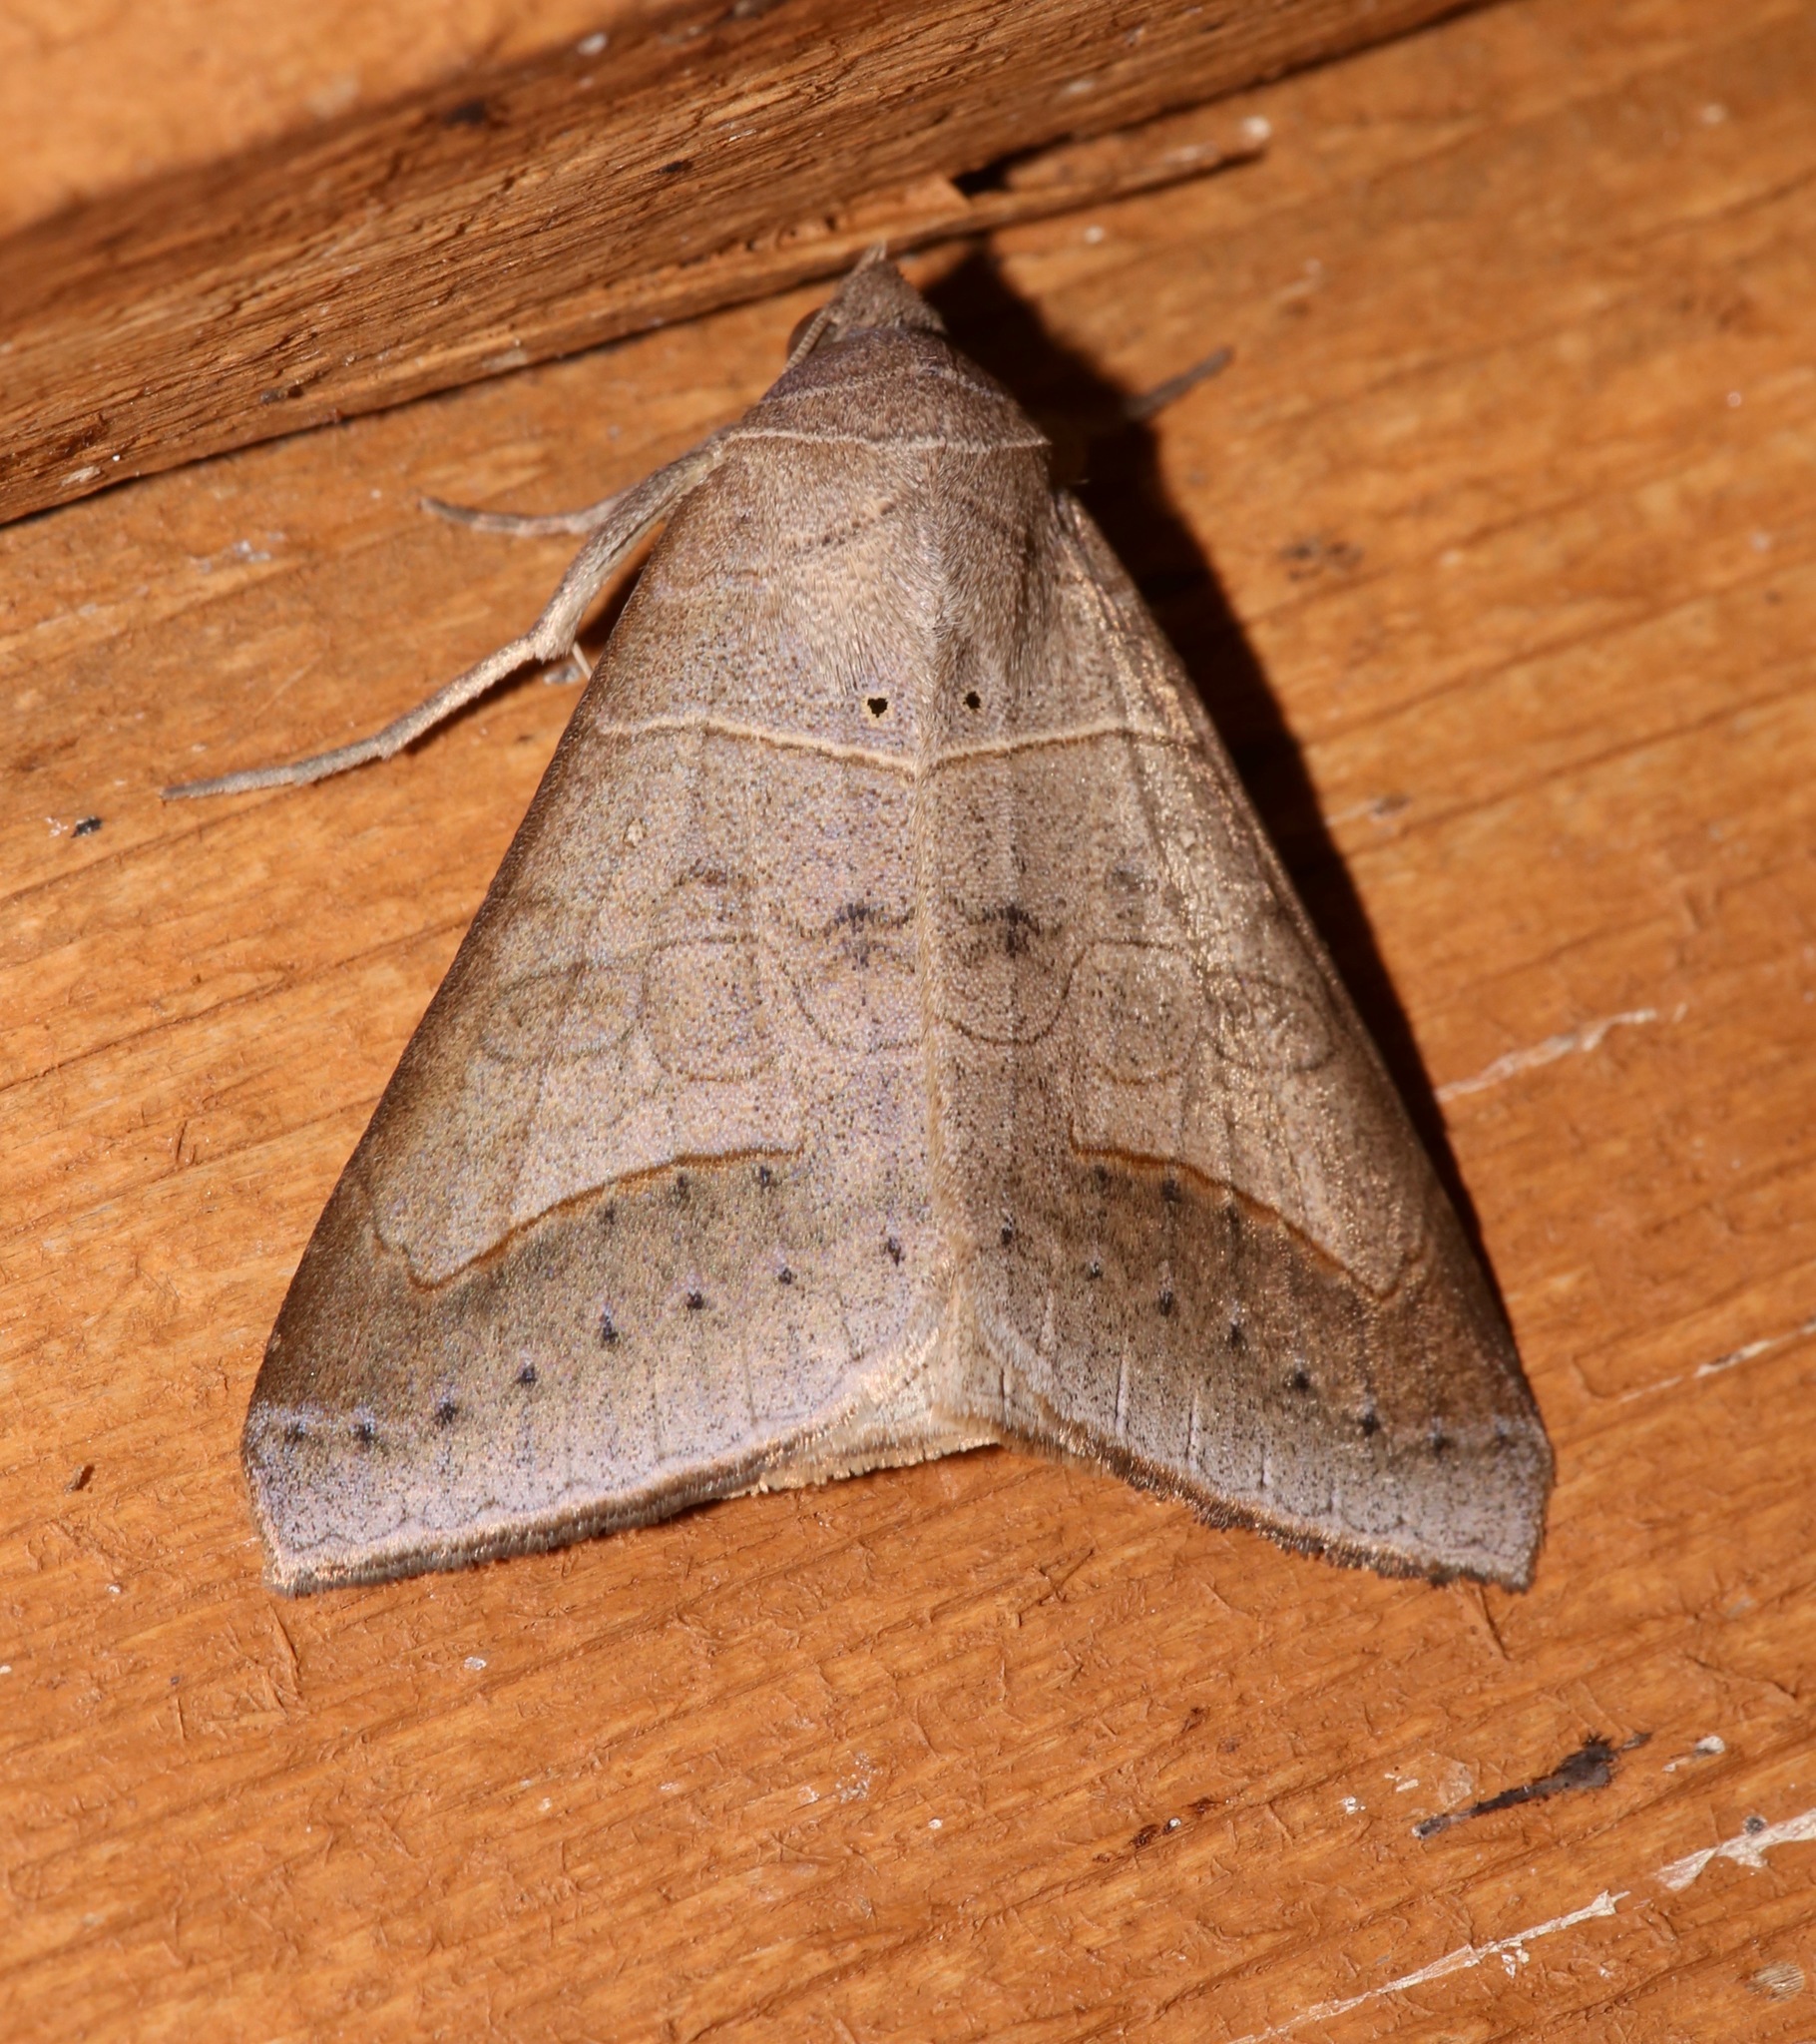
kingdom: Animalia
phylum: Arthropoda
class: Insecta
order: Lepidoptera
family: Erebidae
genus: Mocis
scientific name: Mocis marcida
